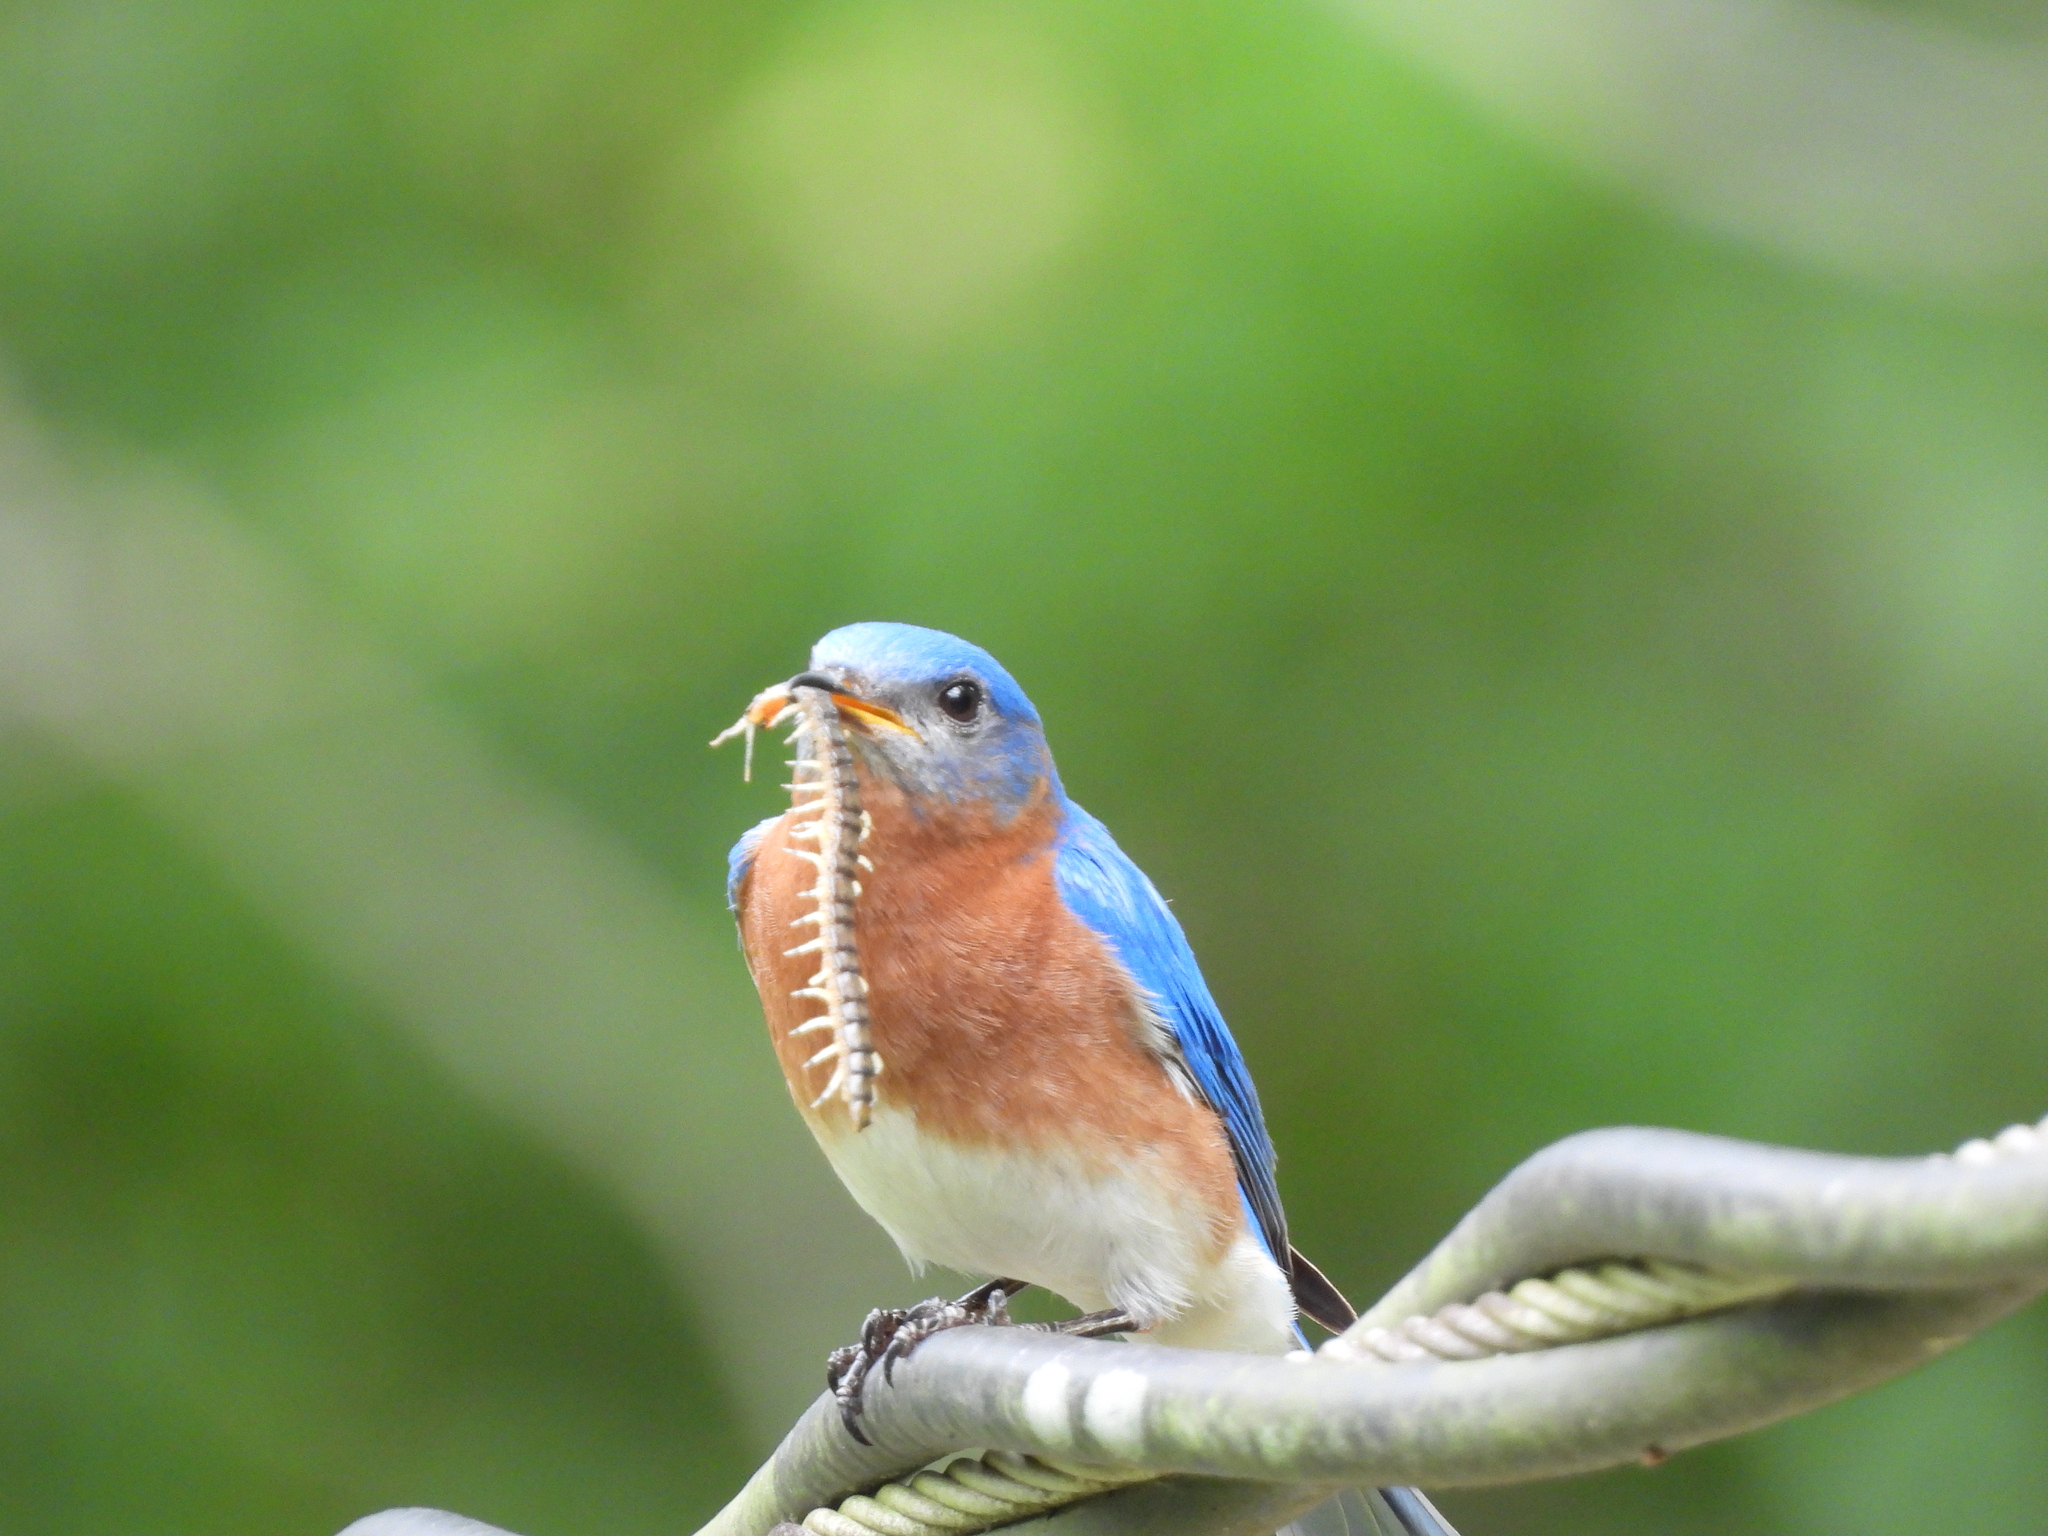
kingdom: Animalia
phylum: Arthropoda
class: Chilopoda
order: Scolopendromorpha
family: Scolopendridae
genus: Hemiscolopendra
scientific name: Hemiscolopendra marginata
